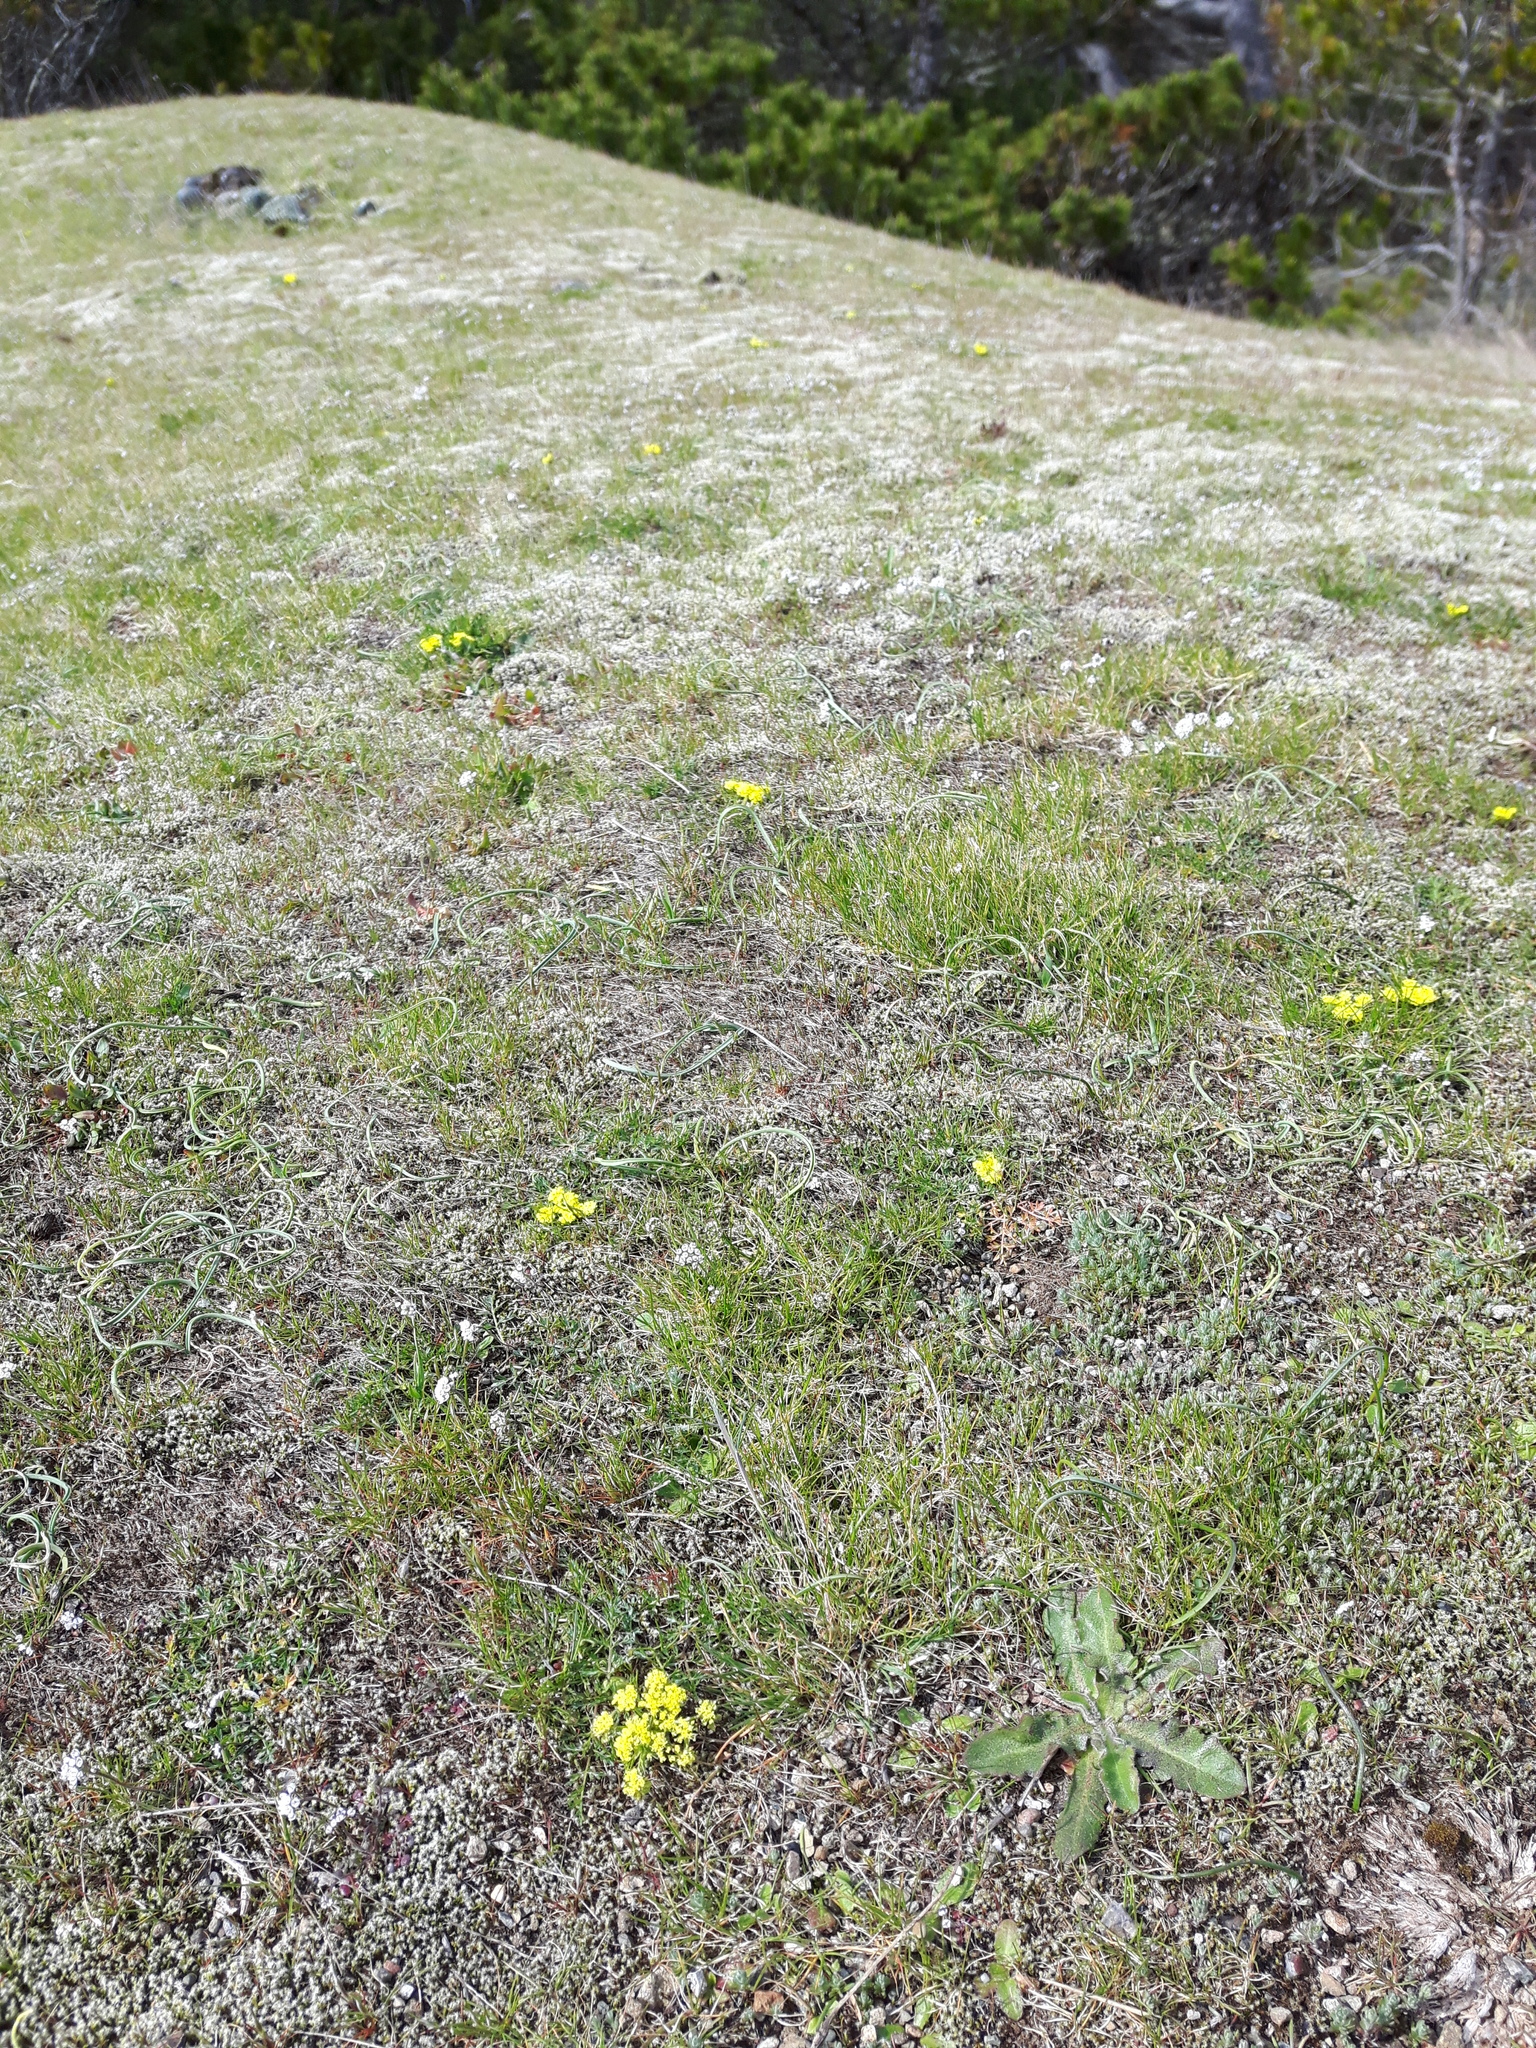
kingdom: Plantae
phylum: Tracheophyta
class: Magnoliopsida
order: Apiales
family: Apiaceae
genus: Lomatium
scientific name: Lomatium utriculatum
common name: Fine-leaf desert-parsley
